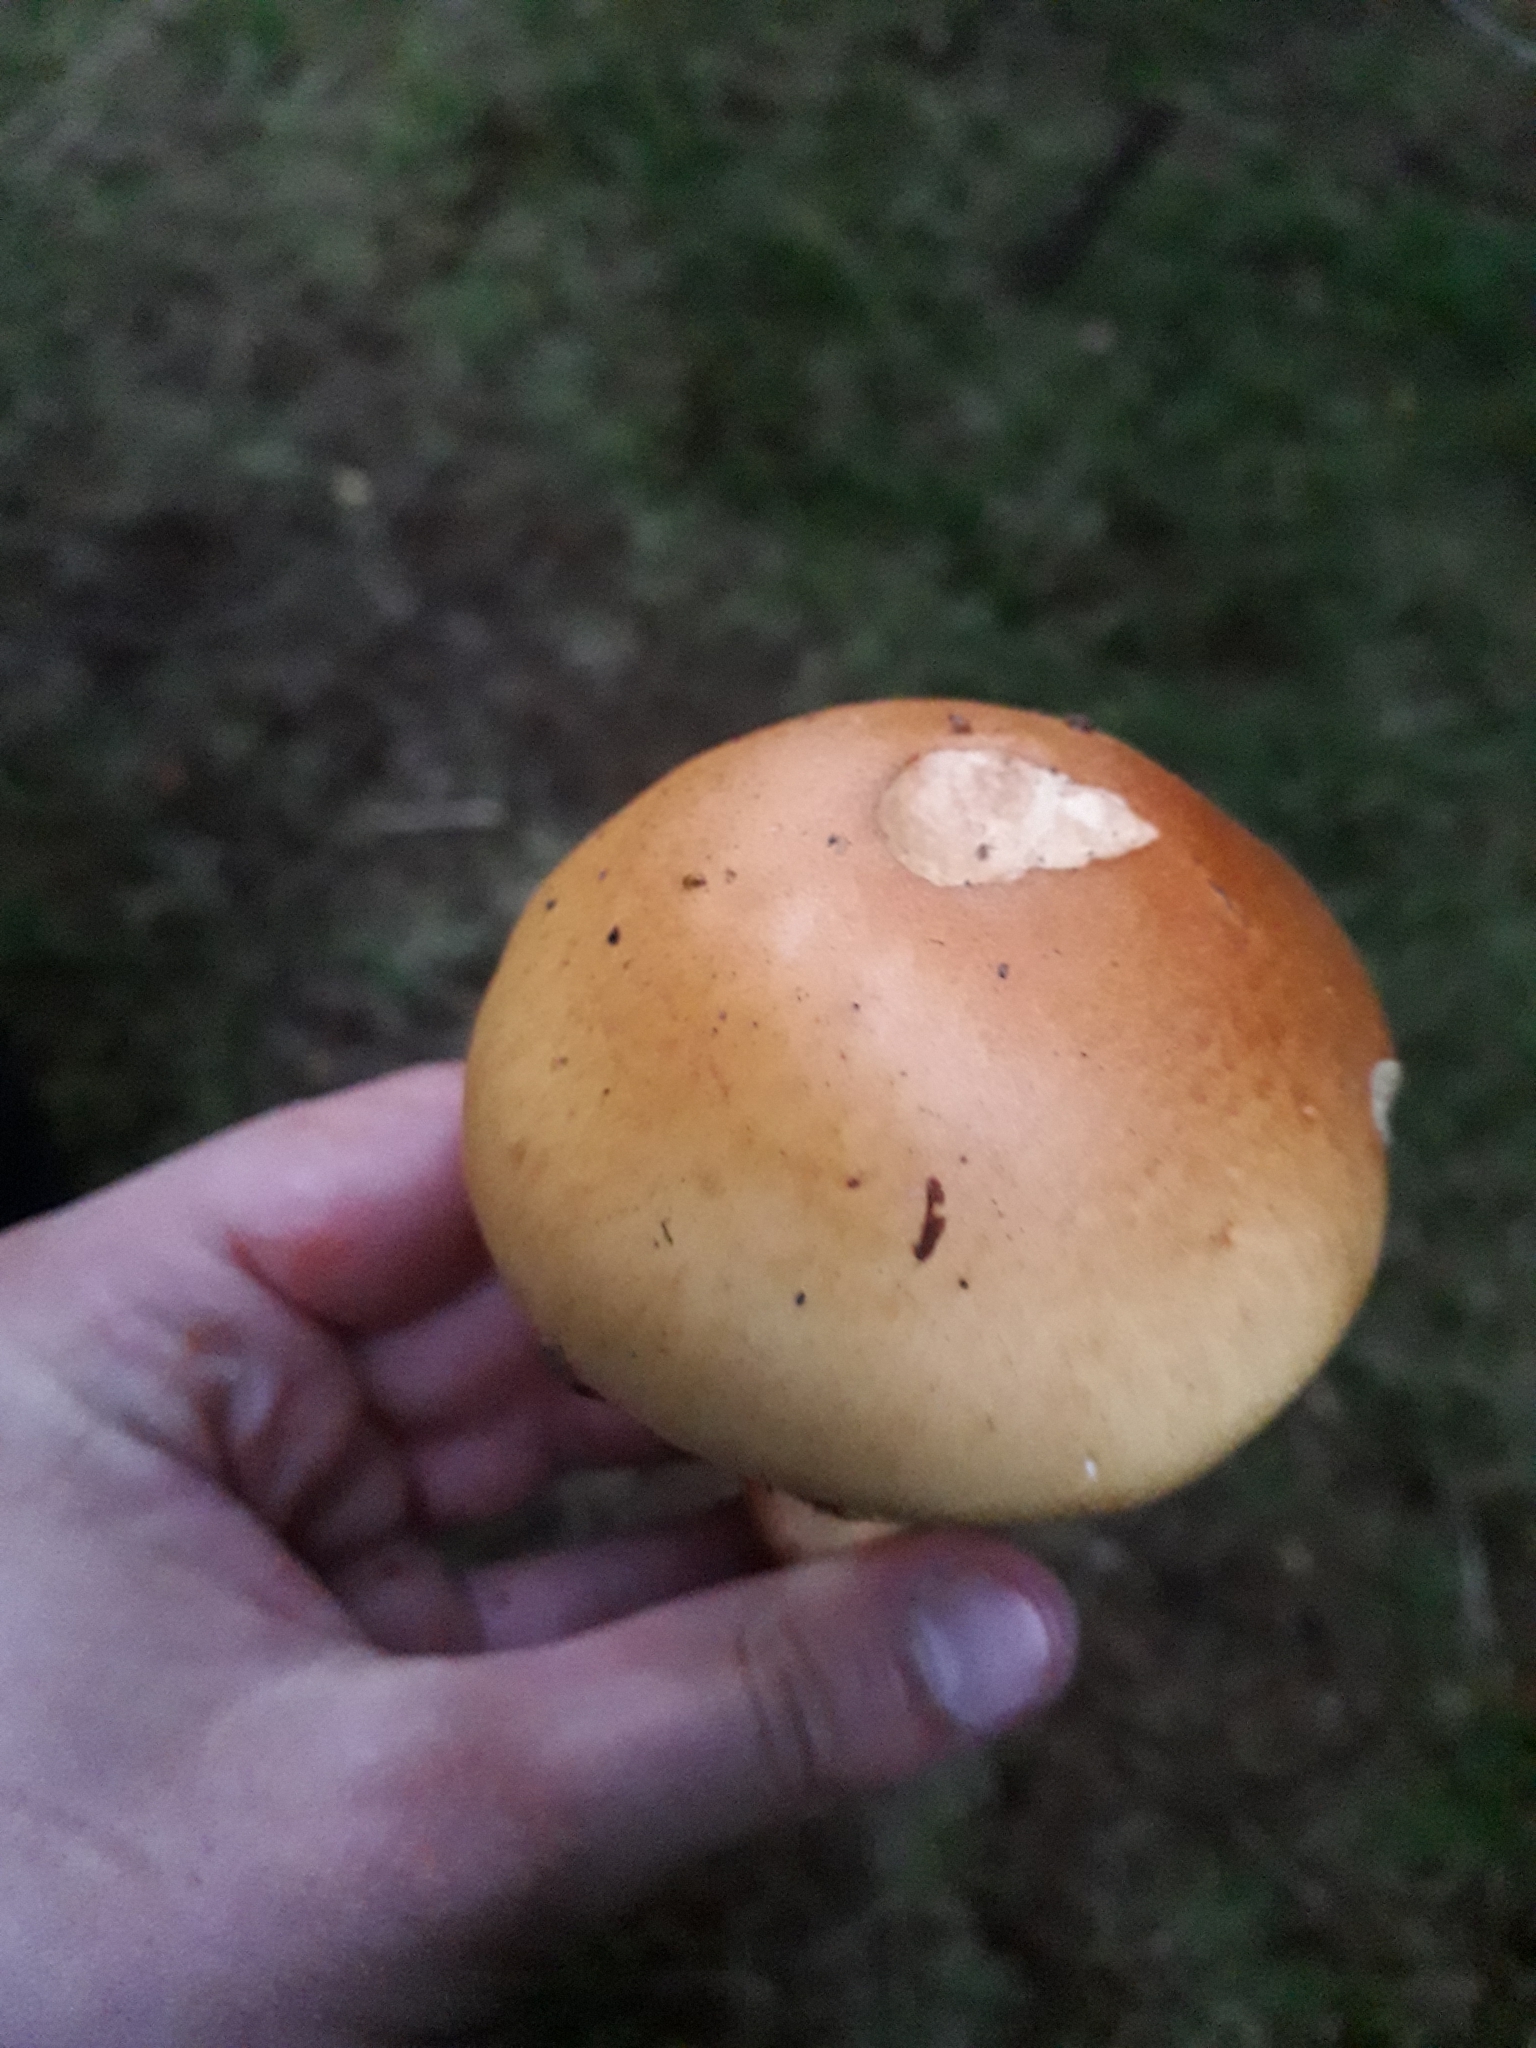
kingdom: Fungi
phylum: Basidiomycota
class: Agaricomycetes
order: Agaricales
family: Cortinariaceae
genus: Phlegmacium
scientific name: Phlegmacium triumphans
